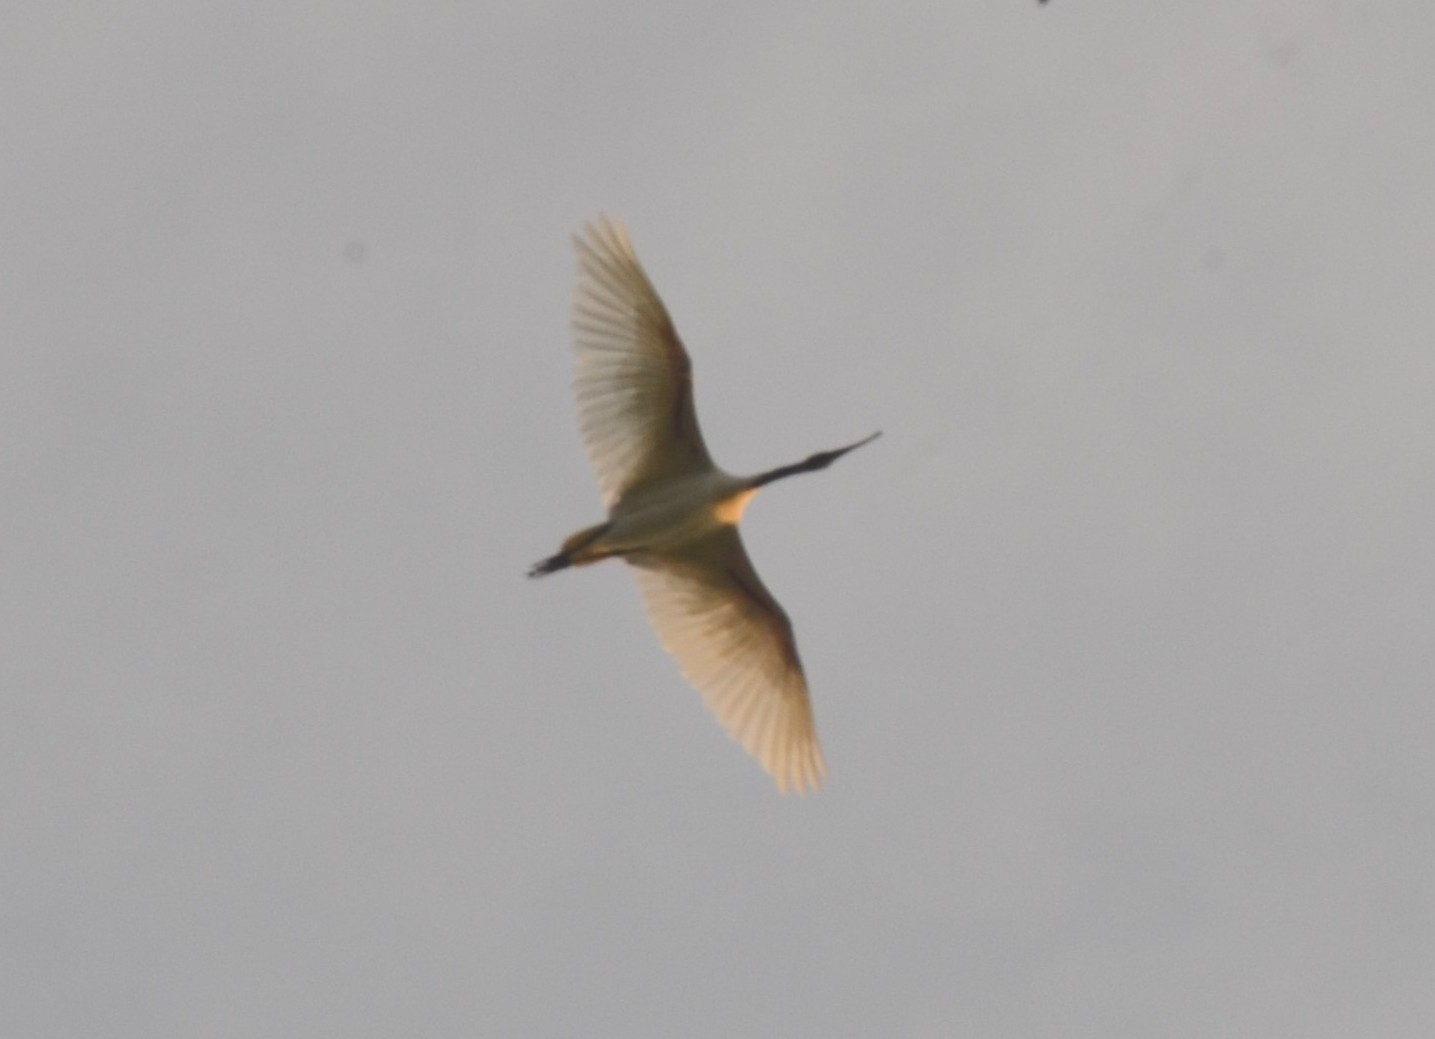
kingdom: Animalia
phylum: Chordata
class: Aves
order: Pelecaniformes
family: Threskiornithidae
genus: Threskiornis
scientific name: Threskiornis melanocephalus
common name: Black-headed ibis
